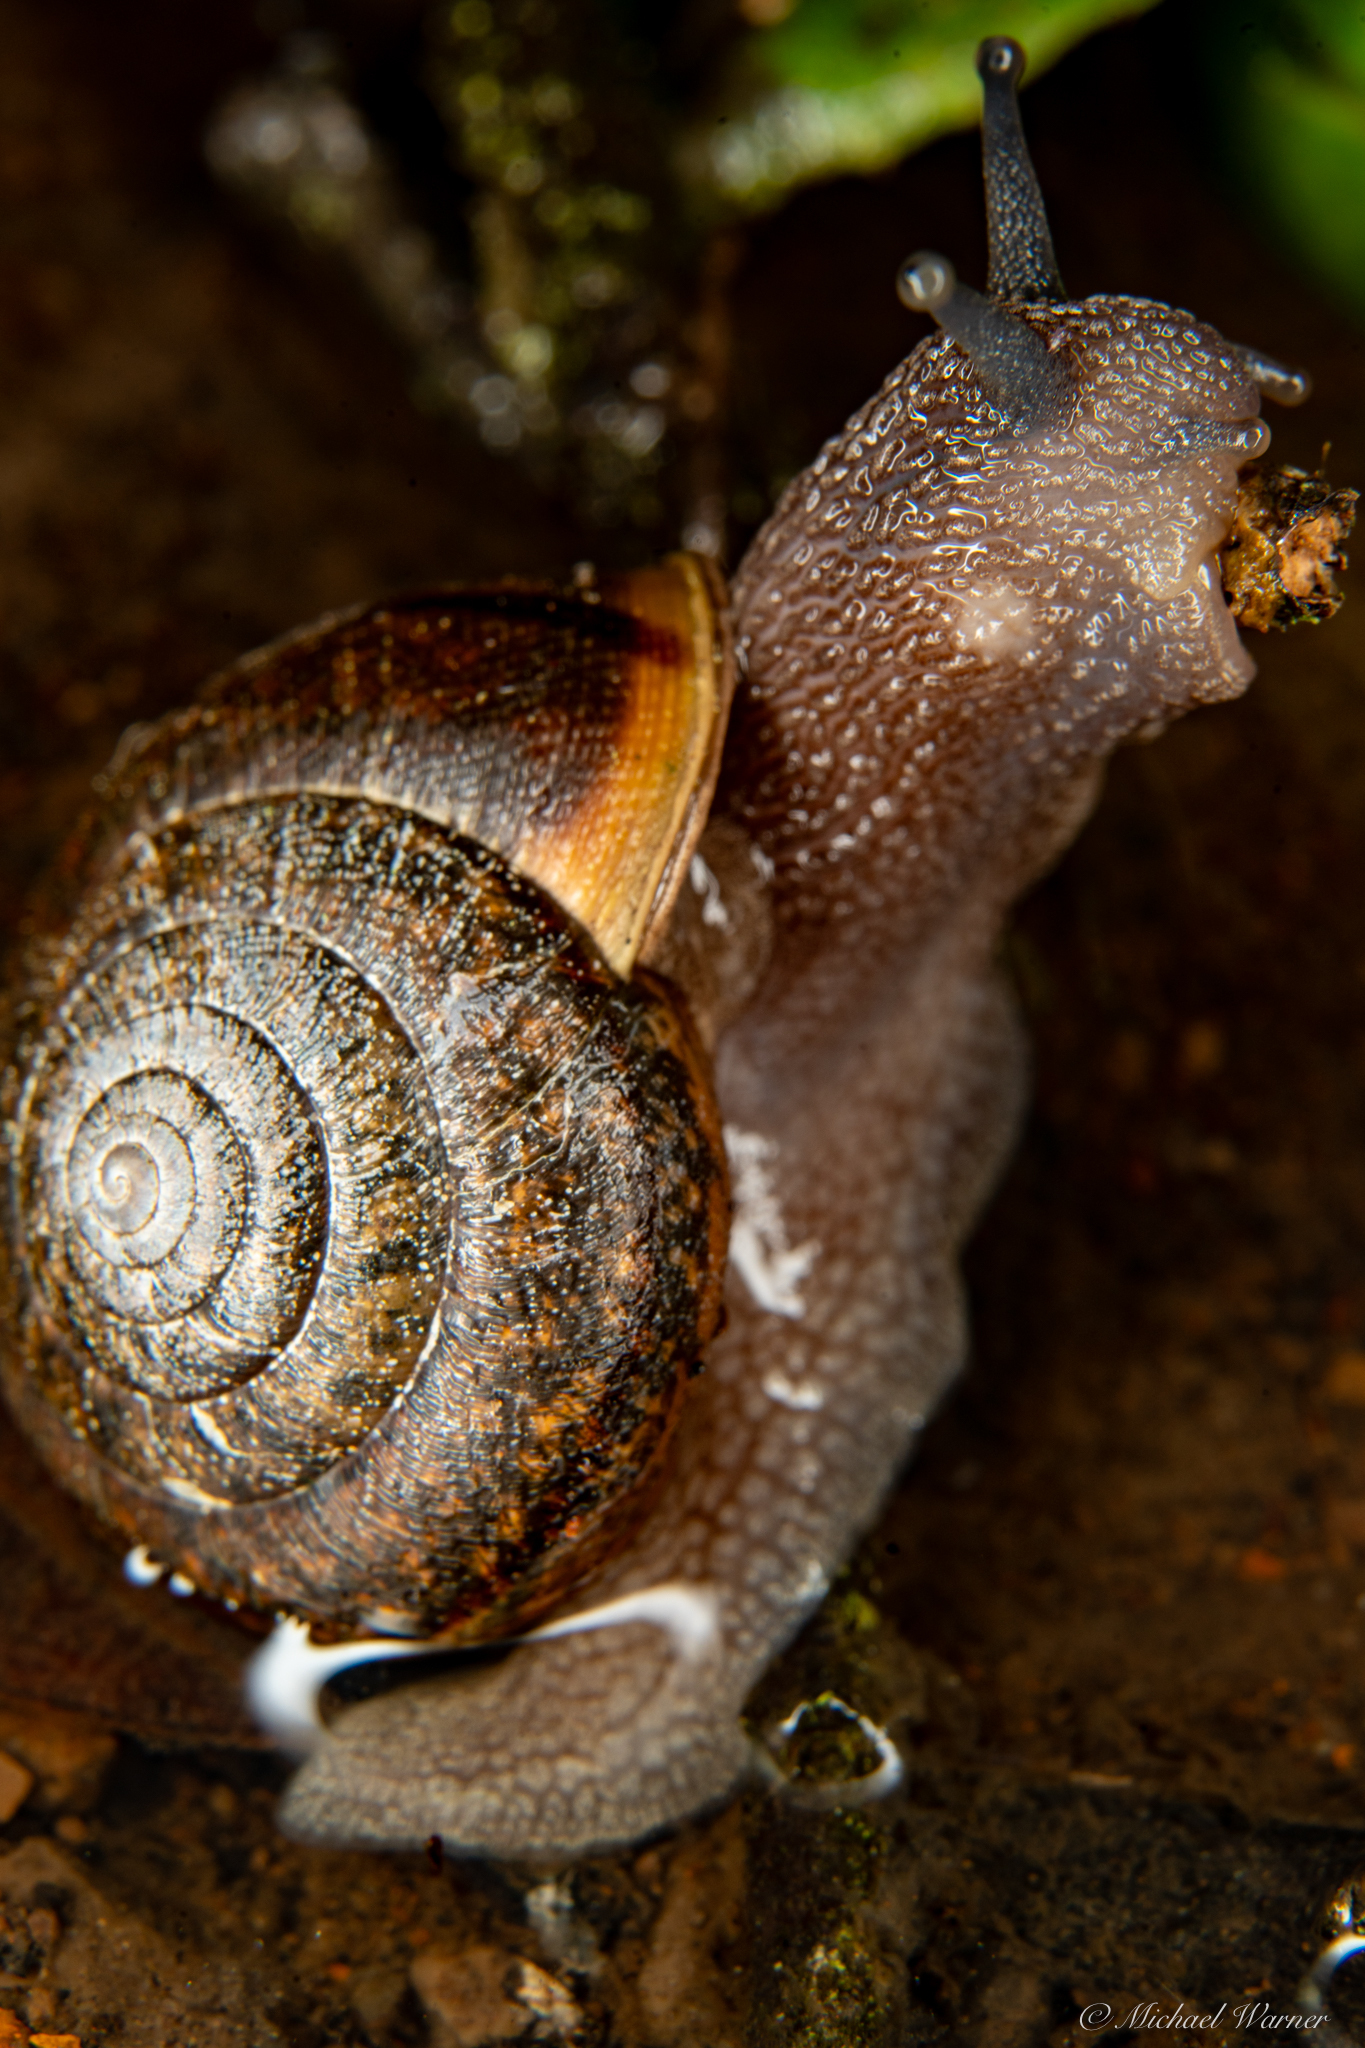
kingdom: Animalia
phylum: Mollusca
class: Gastropoda
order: Stylommatophora
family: Xanthonychidae
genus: Helminthoglypta
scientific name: Helminthoglypta diabloensis
